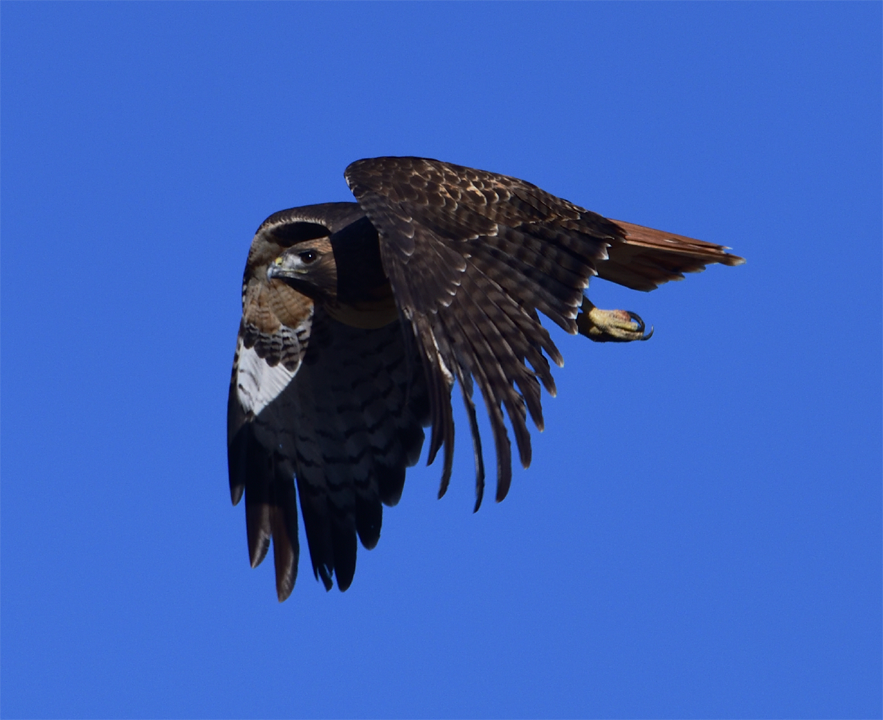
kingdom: Animalia
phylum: Chordata
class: Aves
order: Accipitriformes
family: Accipitridae
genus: Buteo
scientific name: Buteo jamaicensis
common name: Red-tailed hawk
